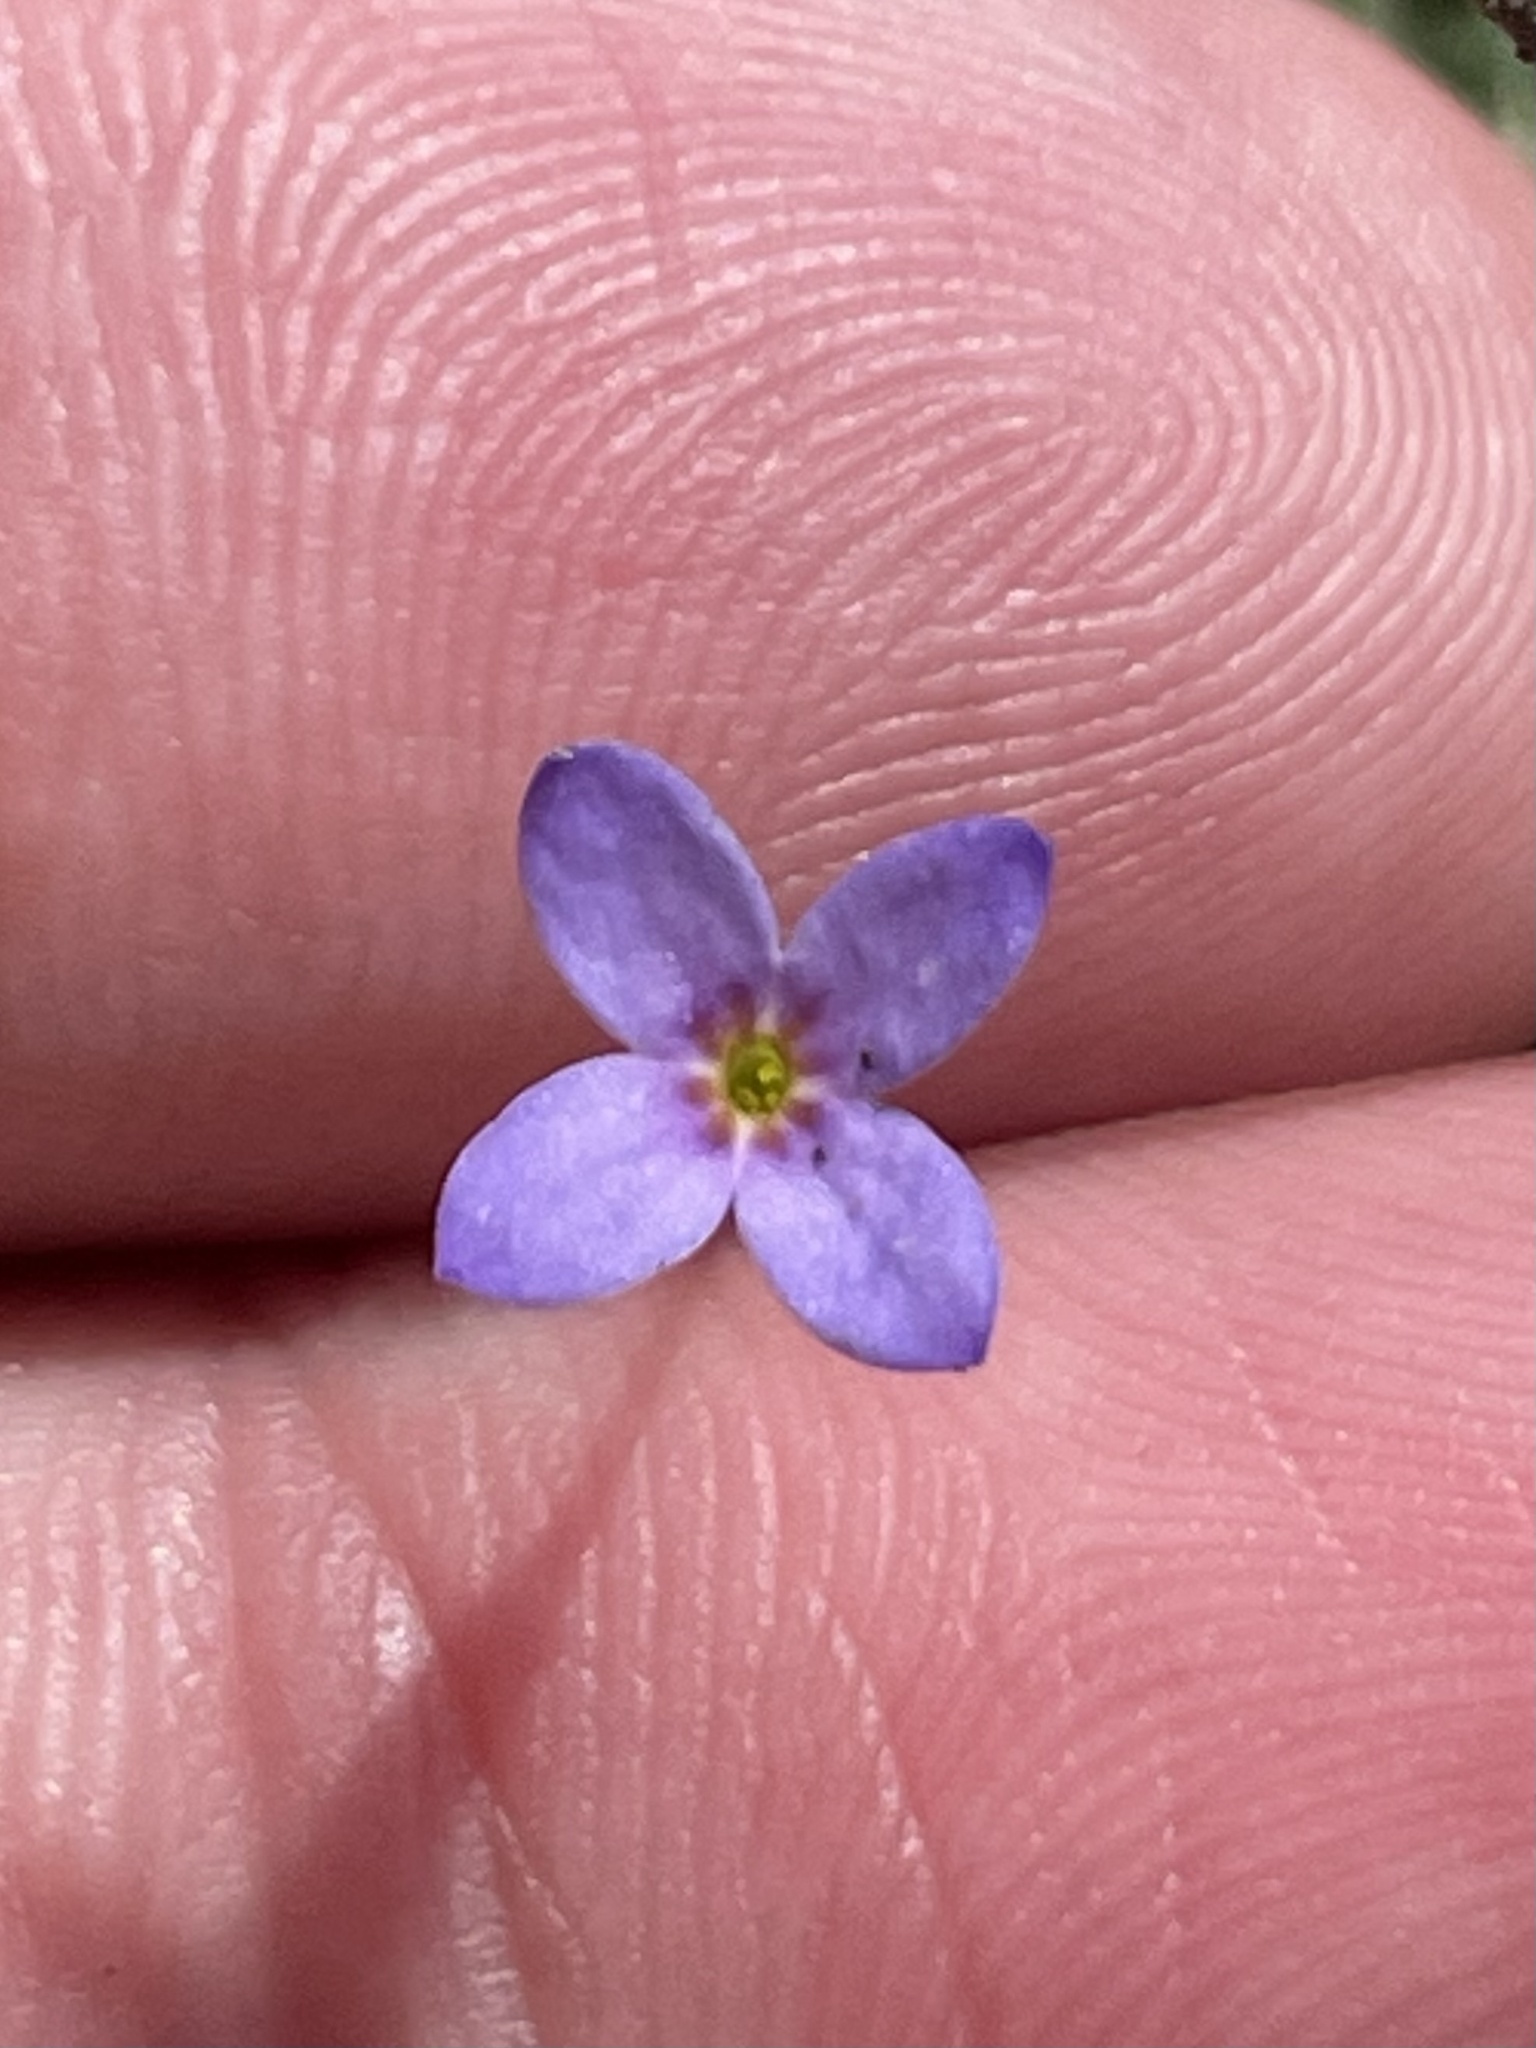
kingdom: Plantae
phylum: Tracheophyta
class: Magnoliopsida
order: Gentianales
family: Rubiaceae
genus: Houstonia
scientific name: Houstonia pusilla
